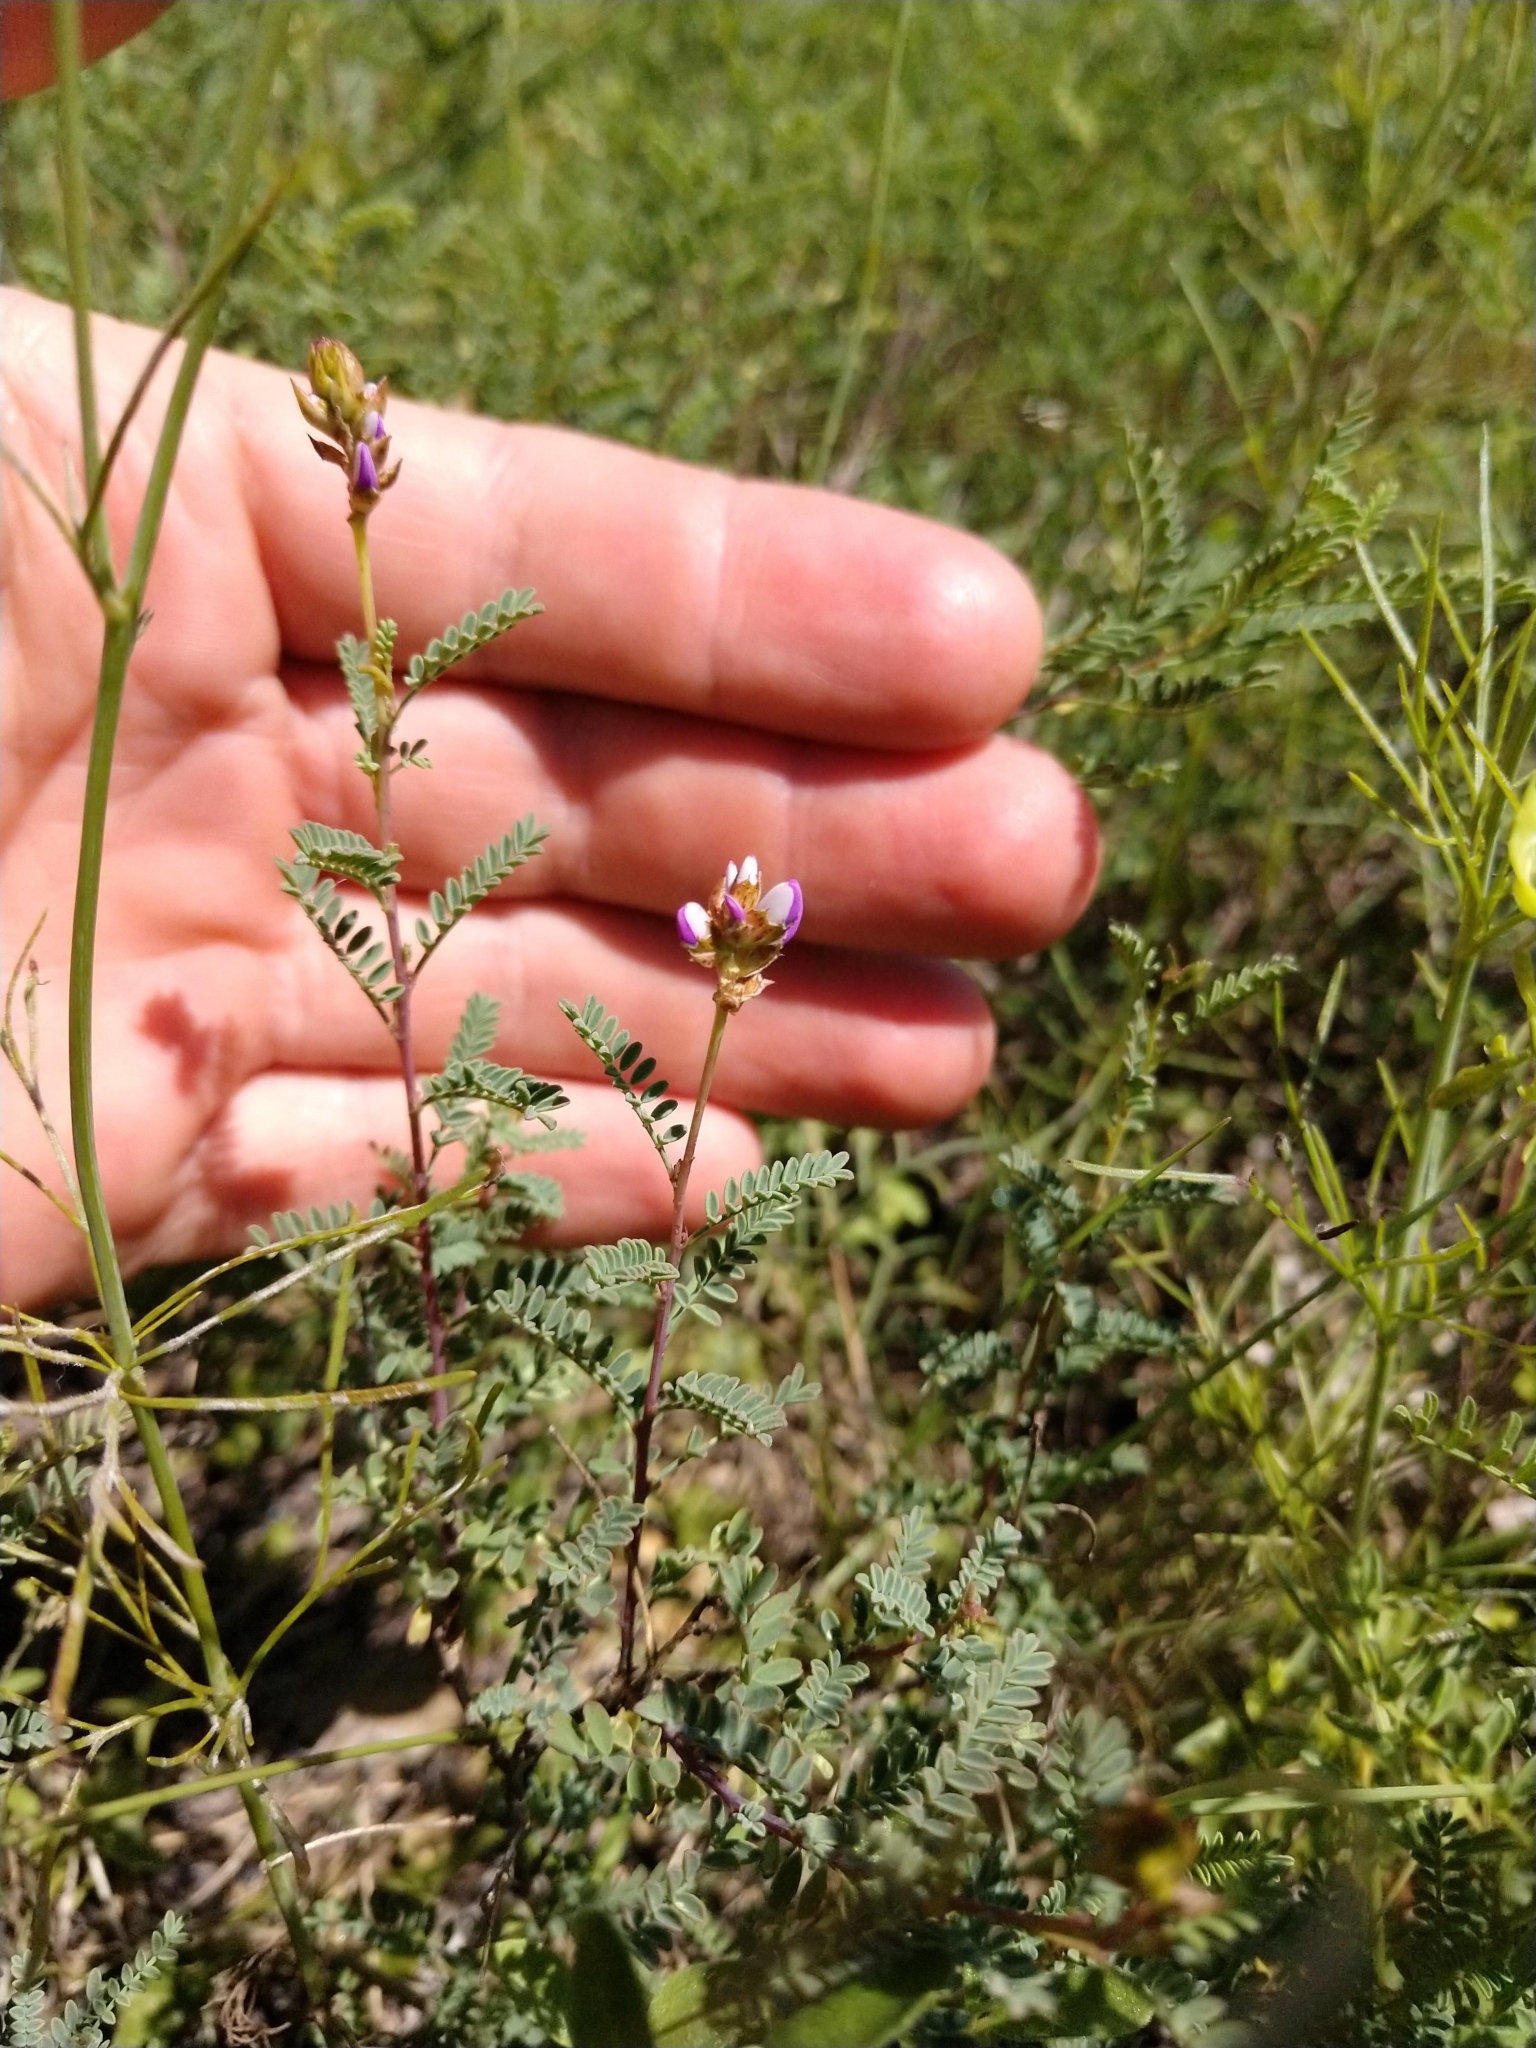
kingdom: Plantae
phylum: Tracheophyta
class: Magnoliopsida
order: Fabales
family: Fabaceae
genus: Dalea
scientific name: Dalea frutescens
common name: Black dalea
